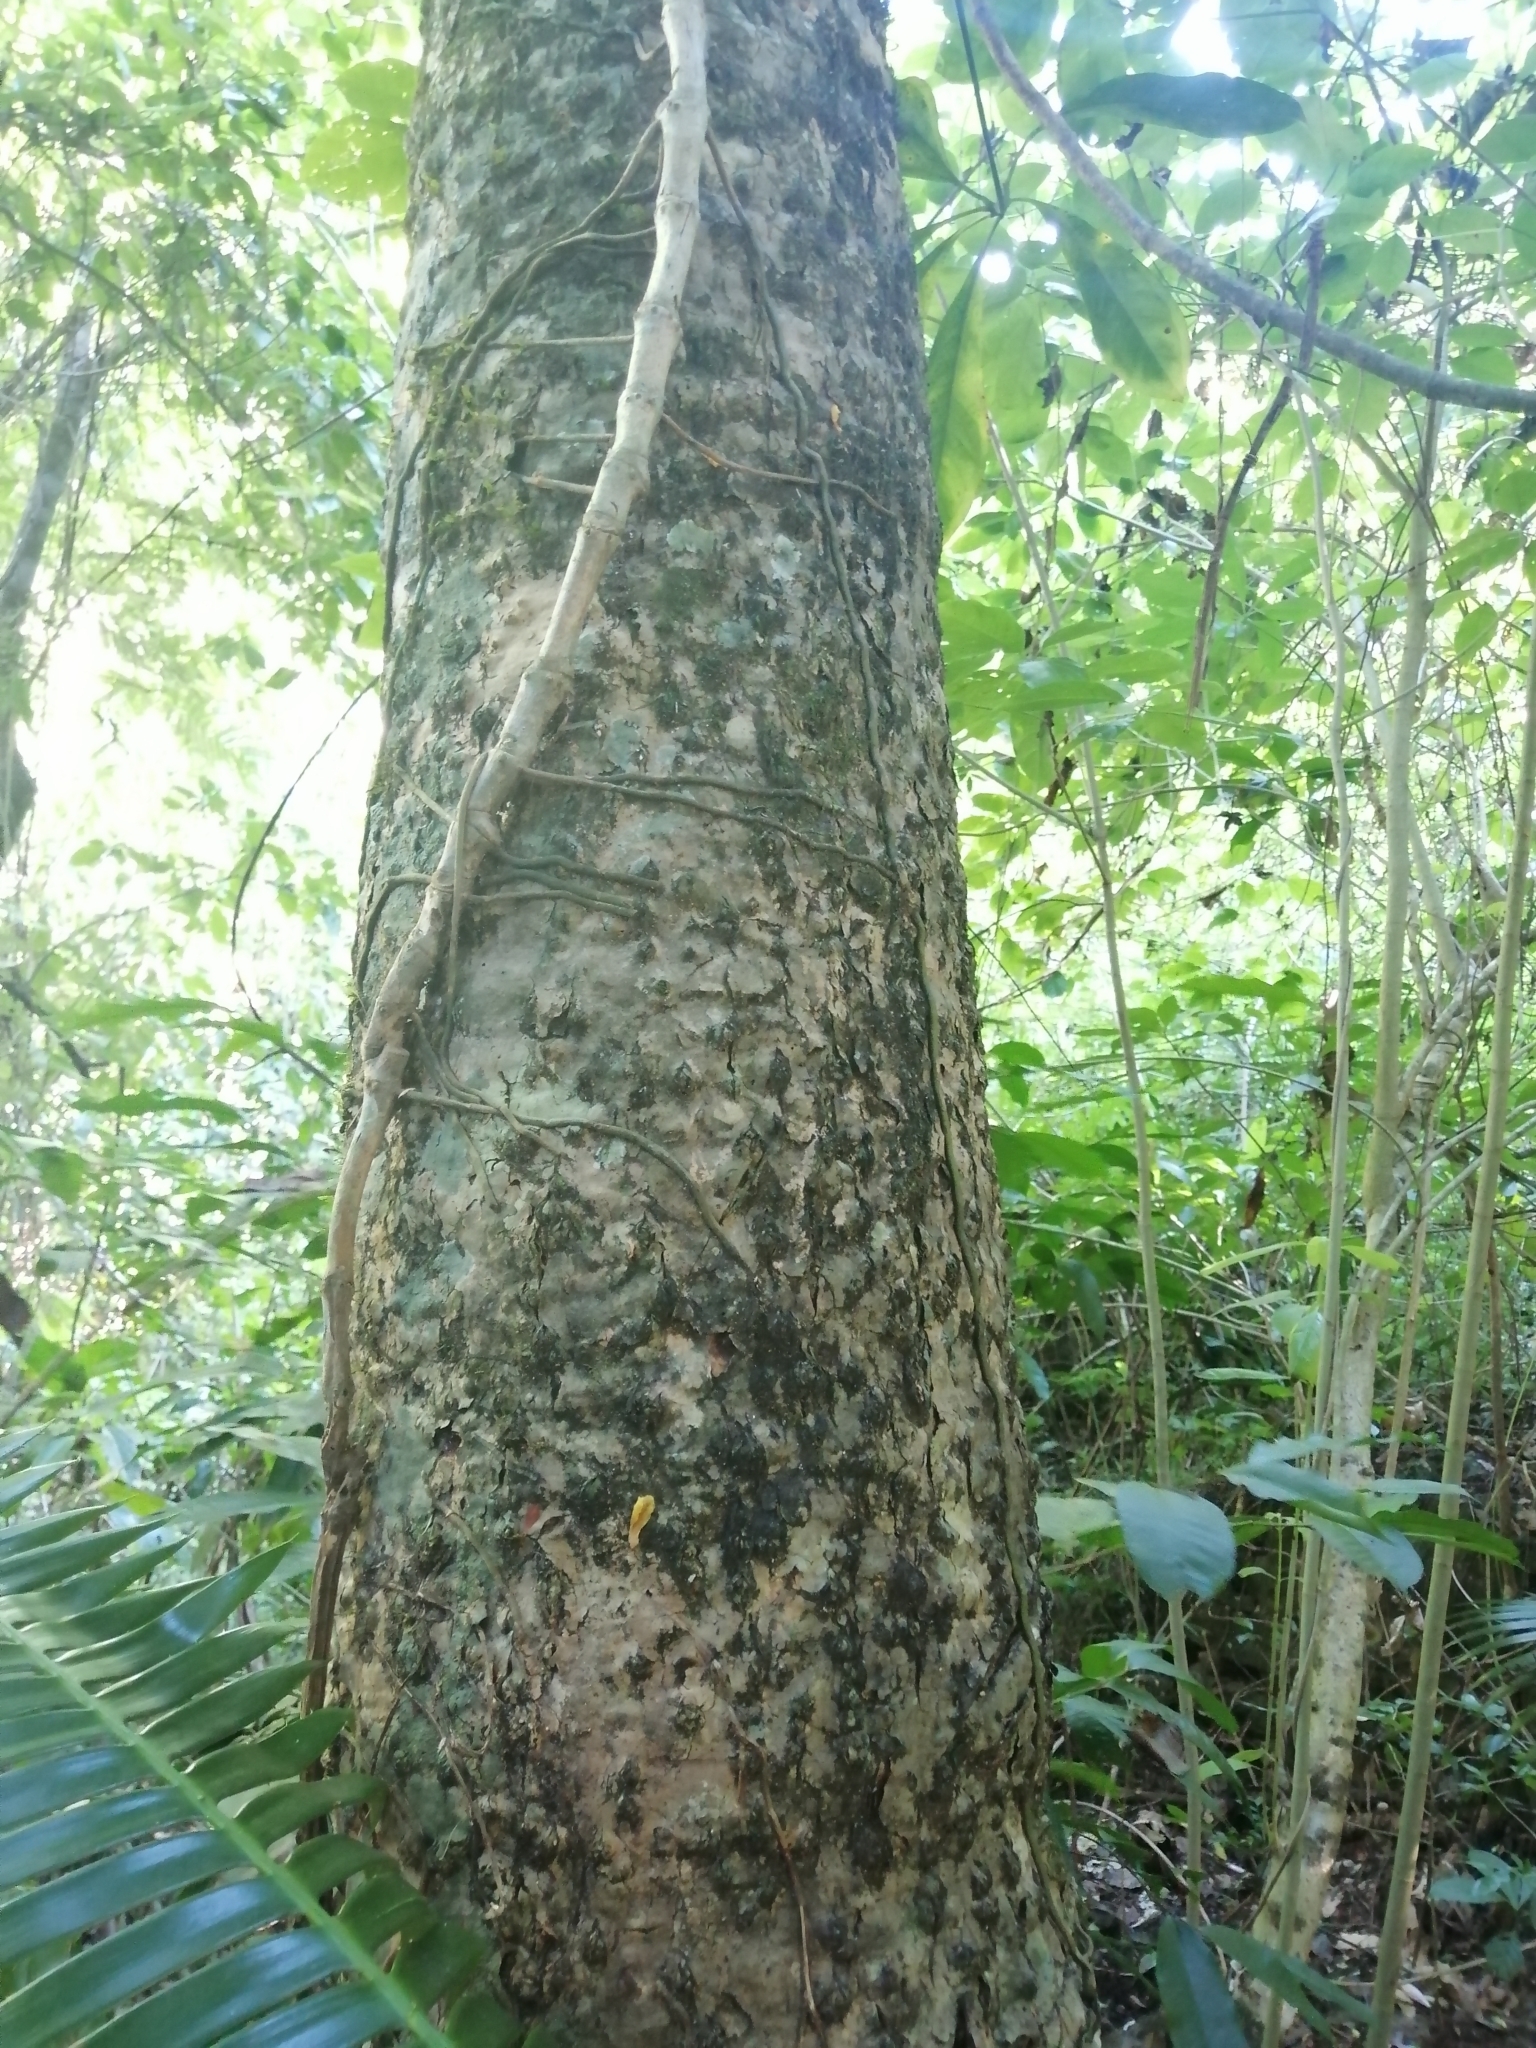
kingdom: Plantae
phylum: Tracheophyta
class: Cycadopsida
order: Cycadales
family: Zamiaceae
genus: Dioon
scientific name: Dioon spinulosum
